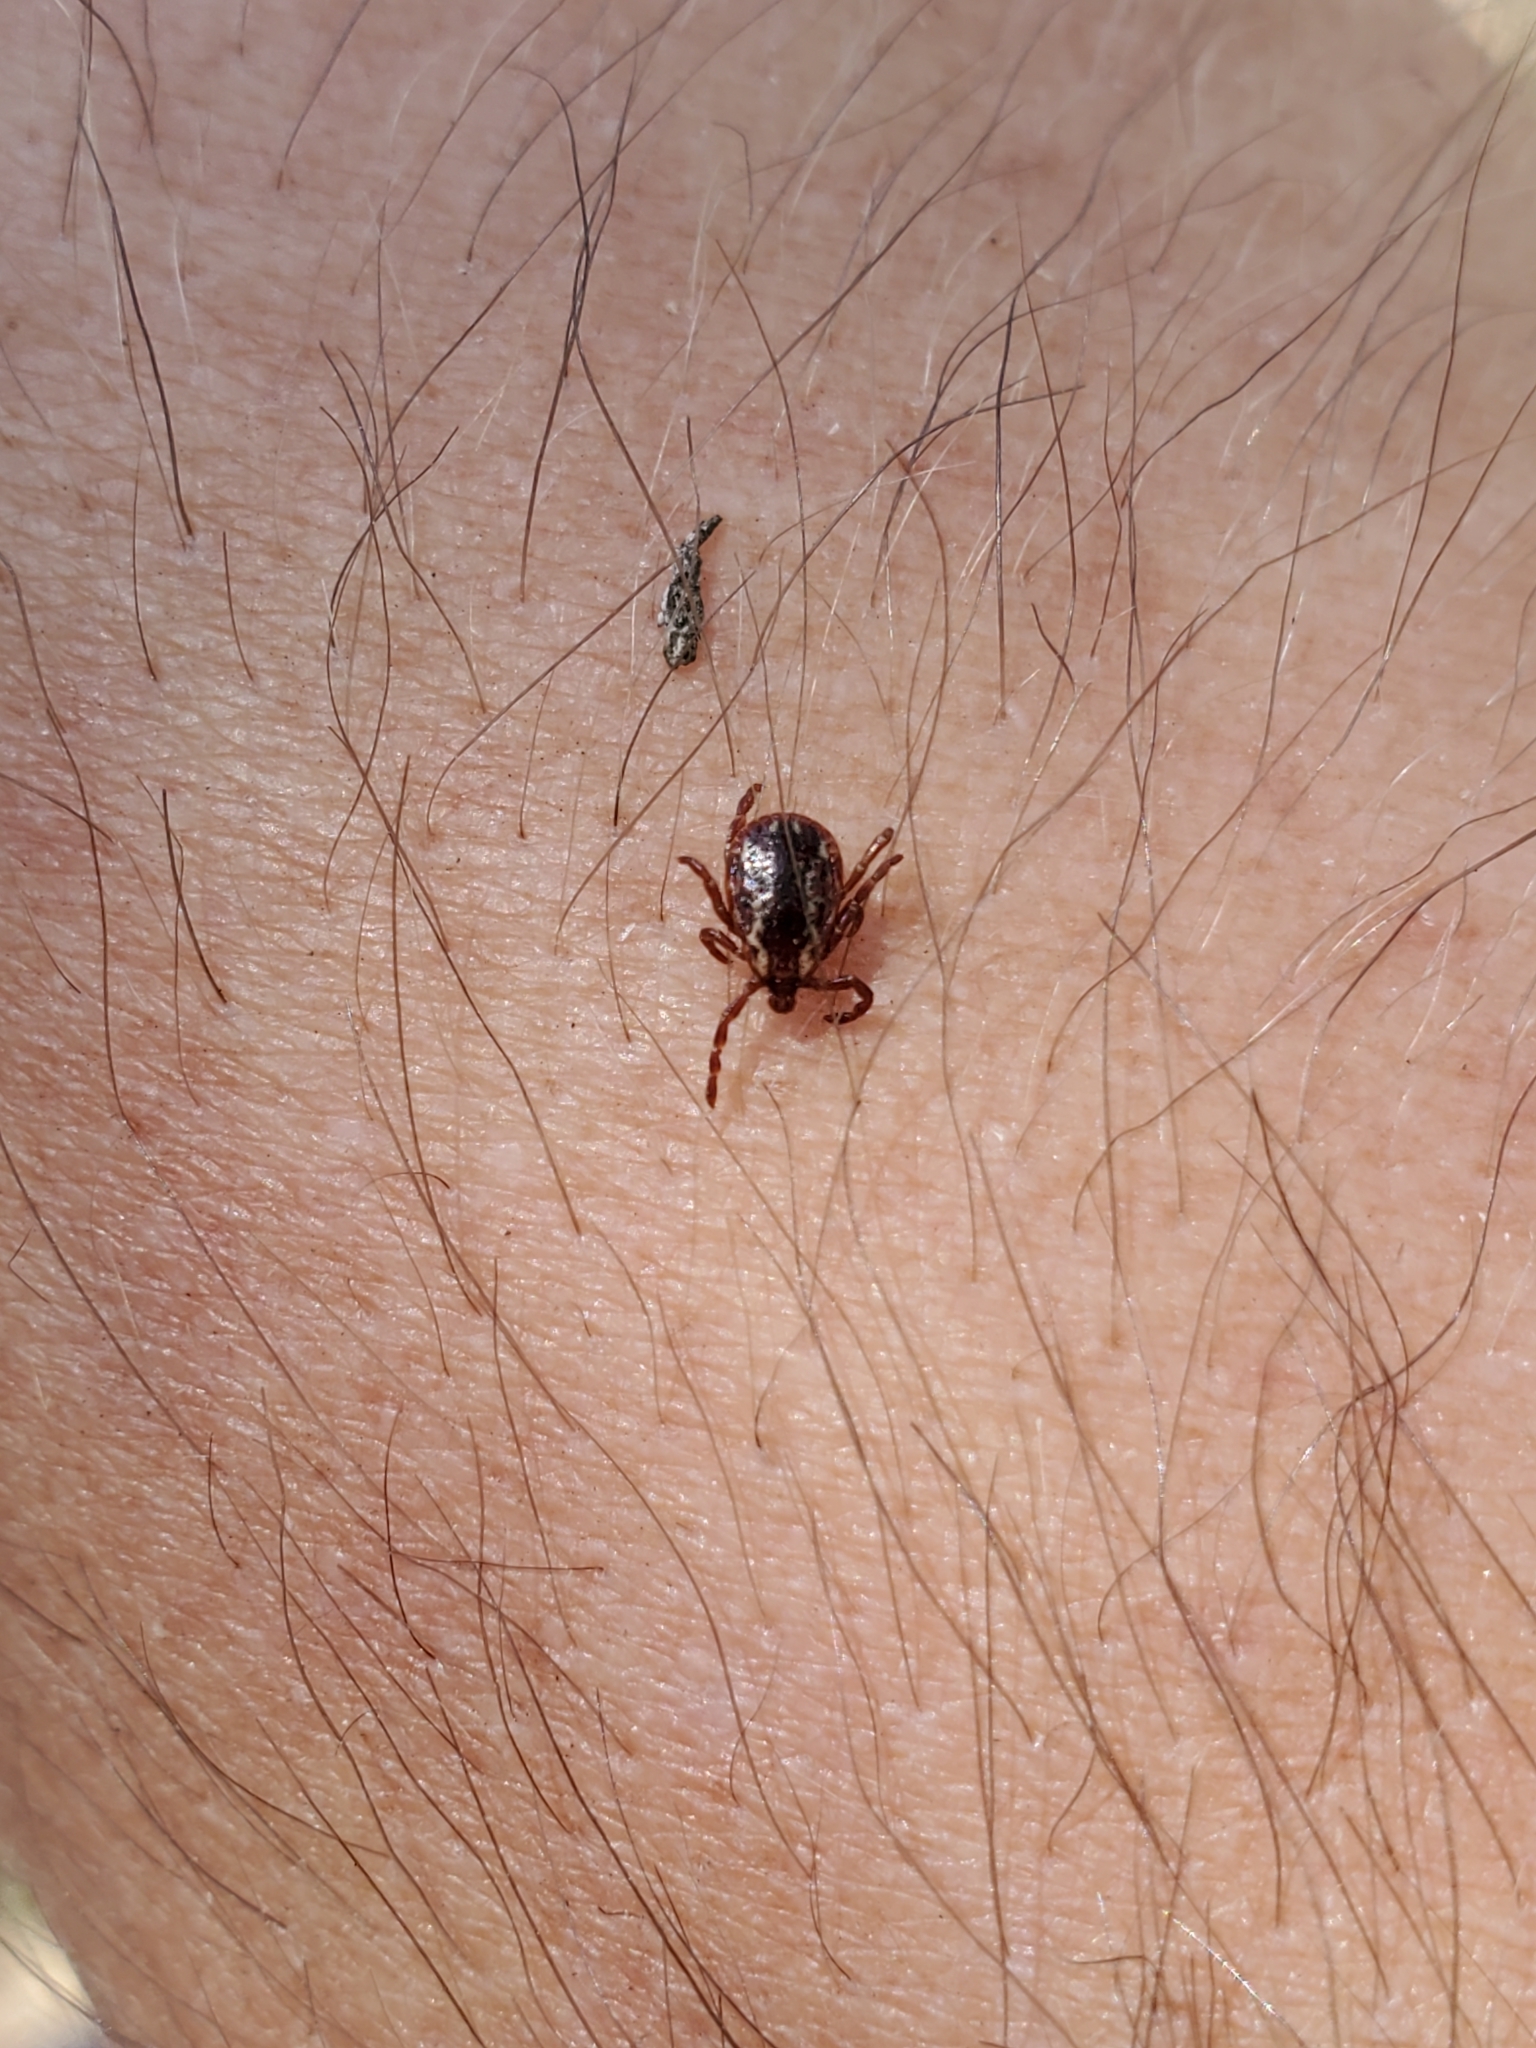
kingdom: Animalia
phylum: Arthropoda
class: Arachnida
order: Ixodida
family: Ixodidae
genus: Dermacentor
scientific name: Dermacentor variabilis
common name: American dog tick
